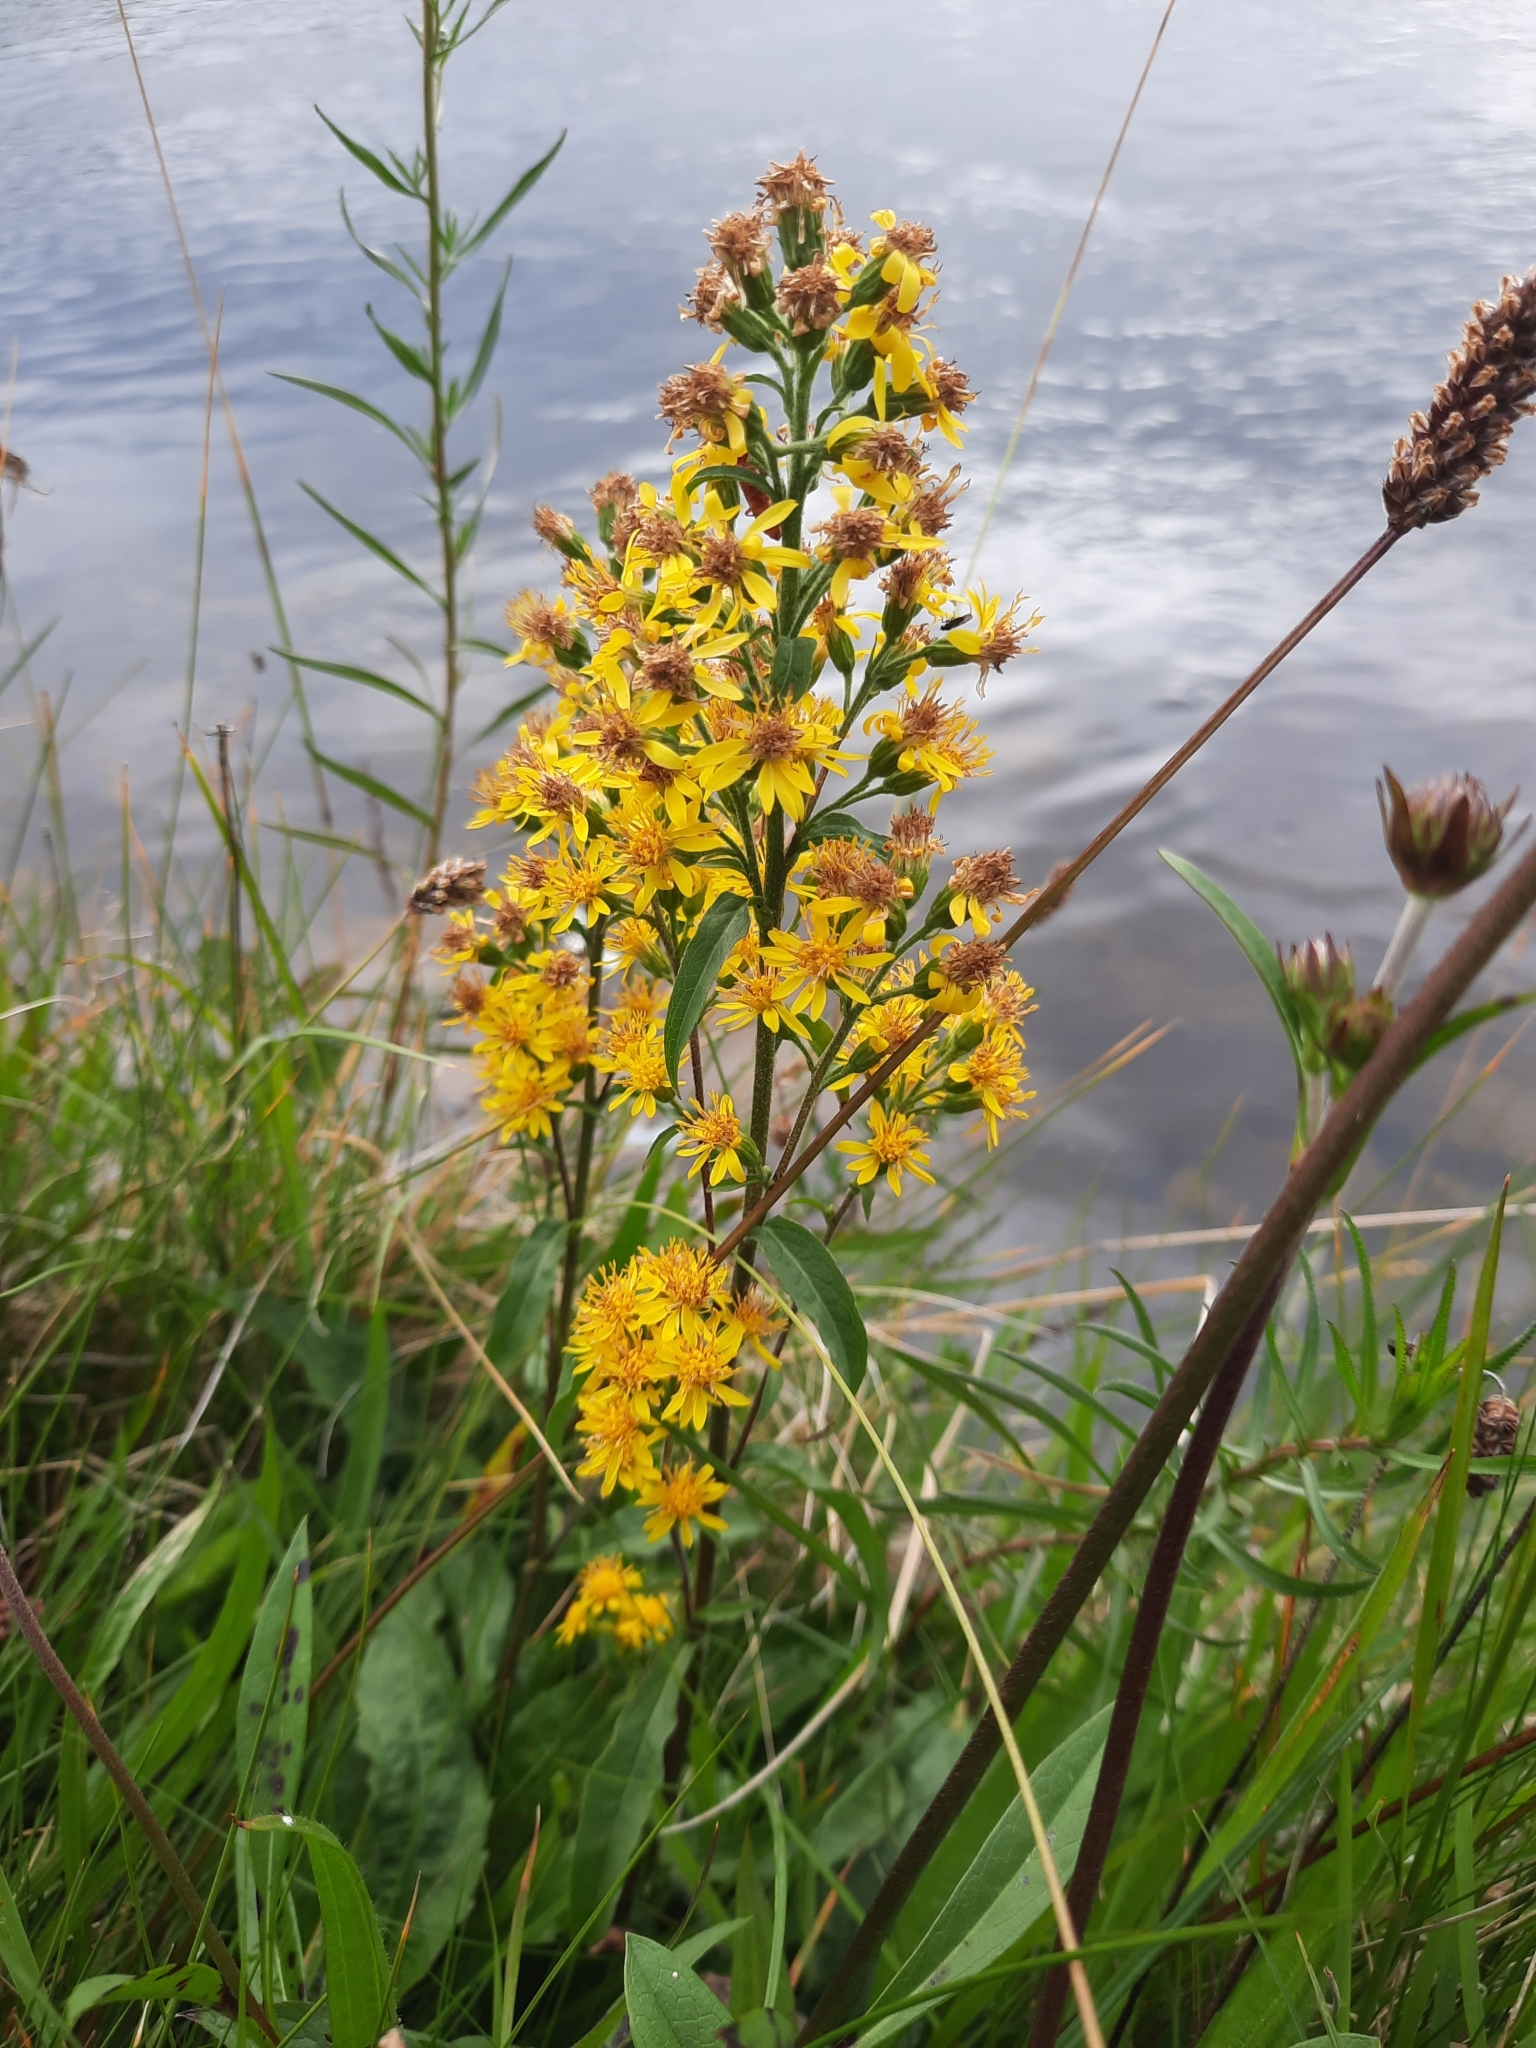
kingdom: Plantae
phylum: Tracheophyta
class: Magnoliopsida
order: Asterales
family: Asteraceae
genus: Solidago
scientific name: Solidago virgaurea
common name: Goldenrod
